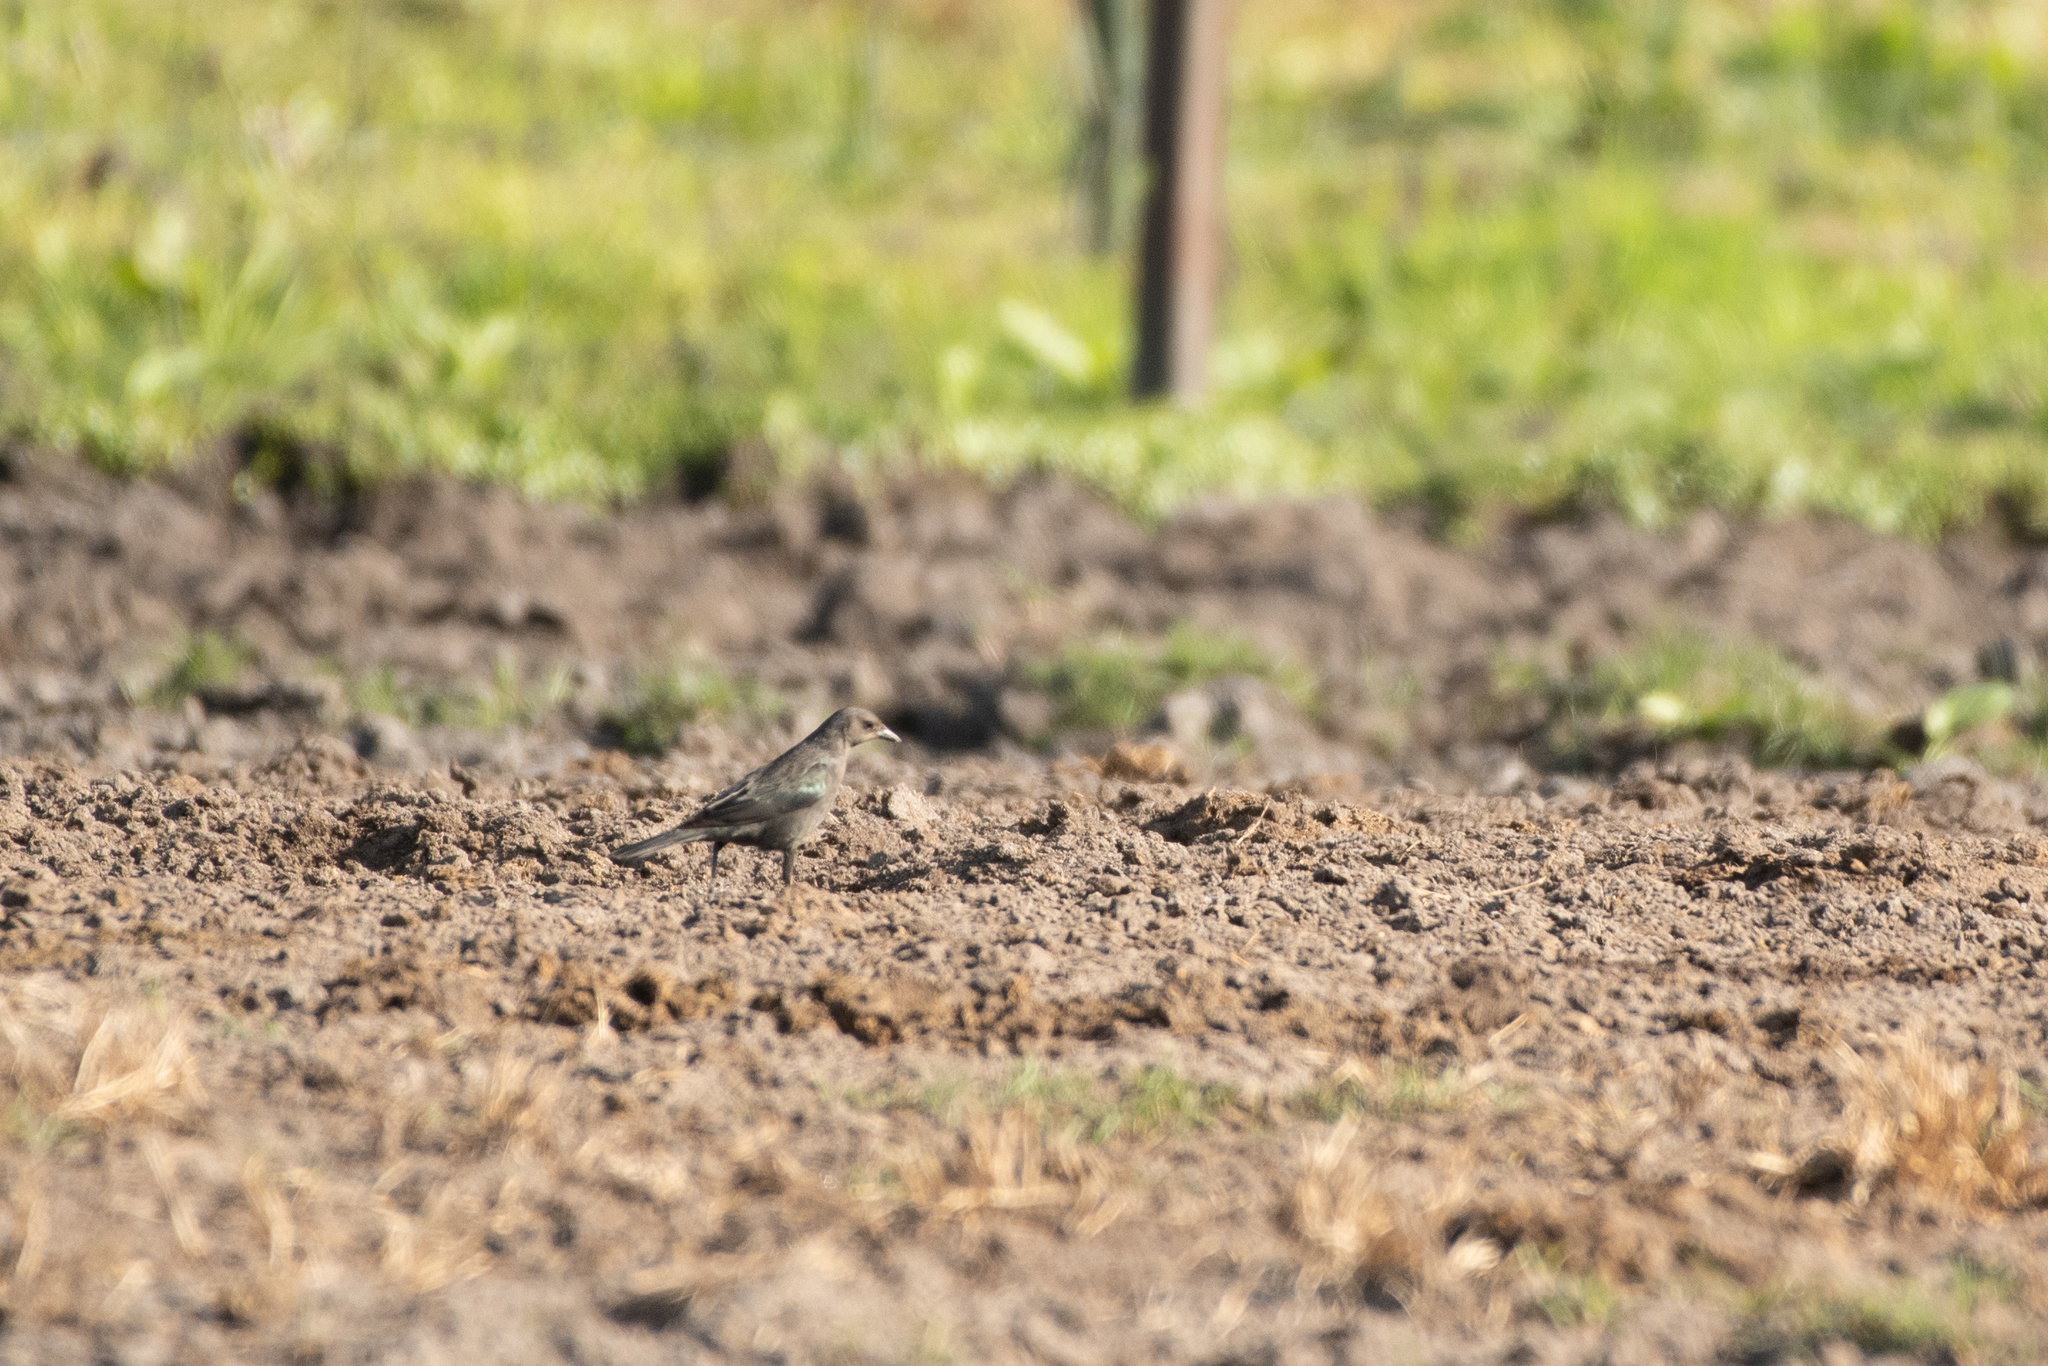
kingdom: Animalia
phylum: Chordata
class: Aves
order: Passeriformes
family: Icteridae
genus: Euphagus
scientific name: Euphagus cyanocephalus
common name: Brewer's blackbird
